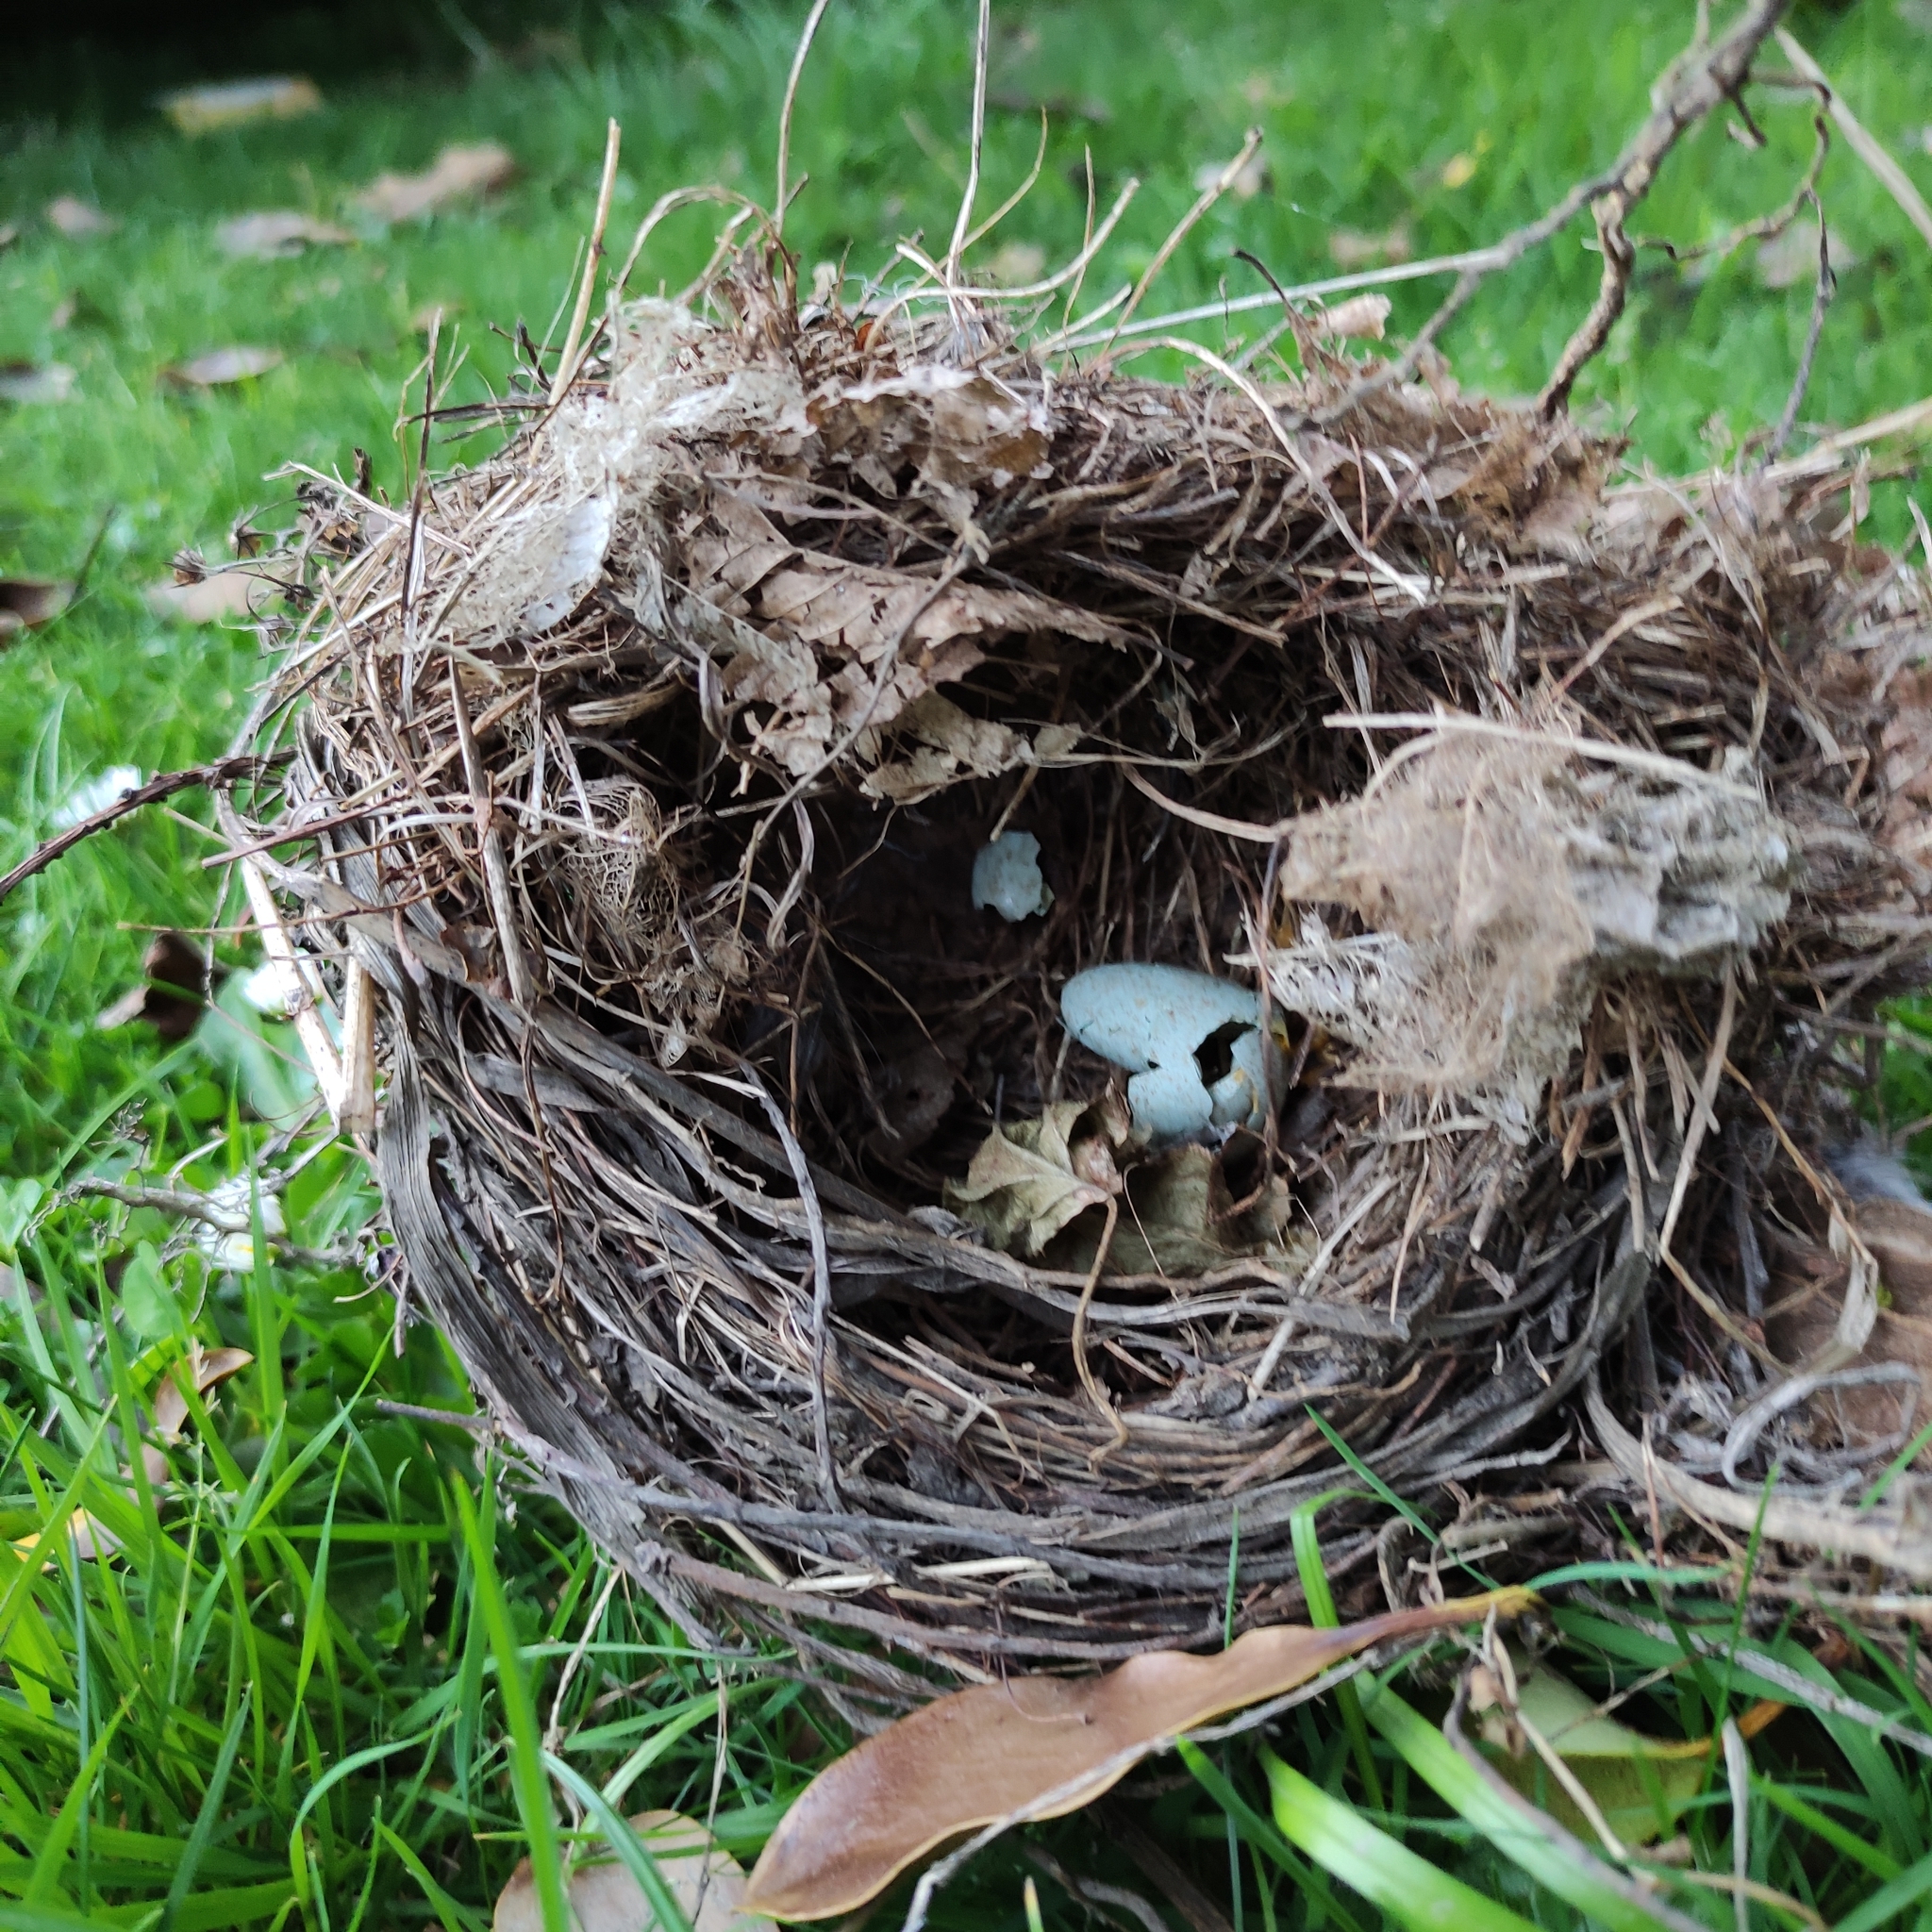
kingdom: Animalia
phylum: Chordata
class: Aves
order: Passeriformes
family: Turdidae
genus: Turdus
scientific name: Turdus merula
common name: Common blackbird
